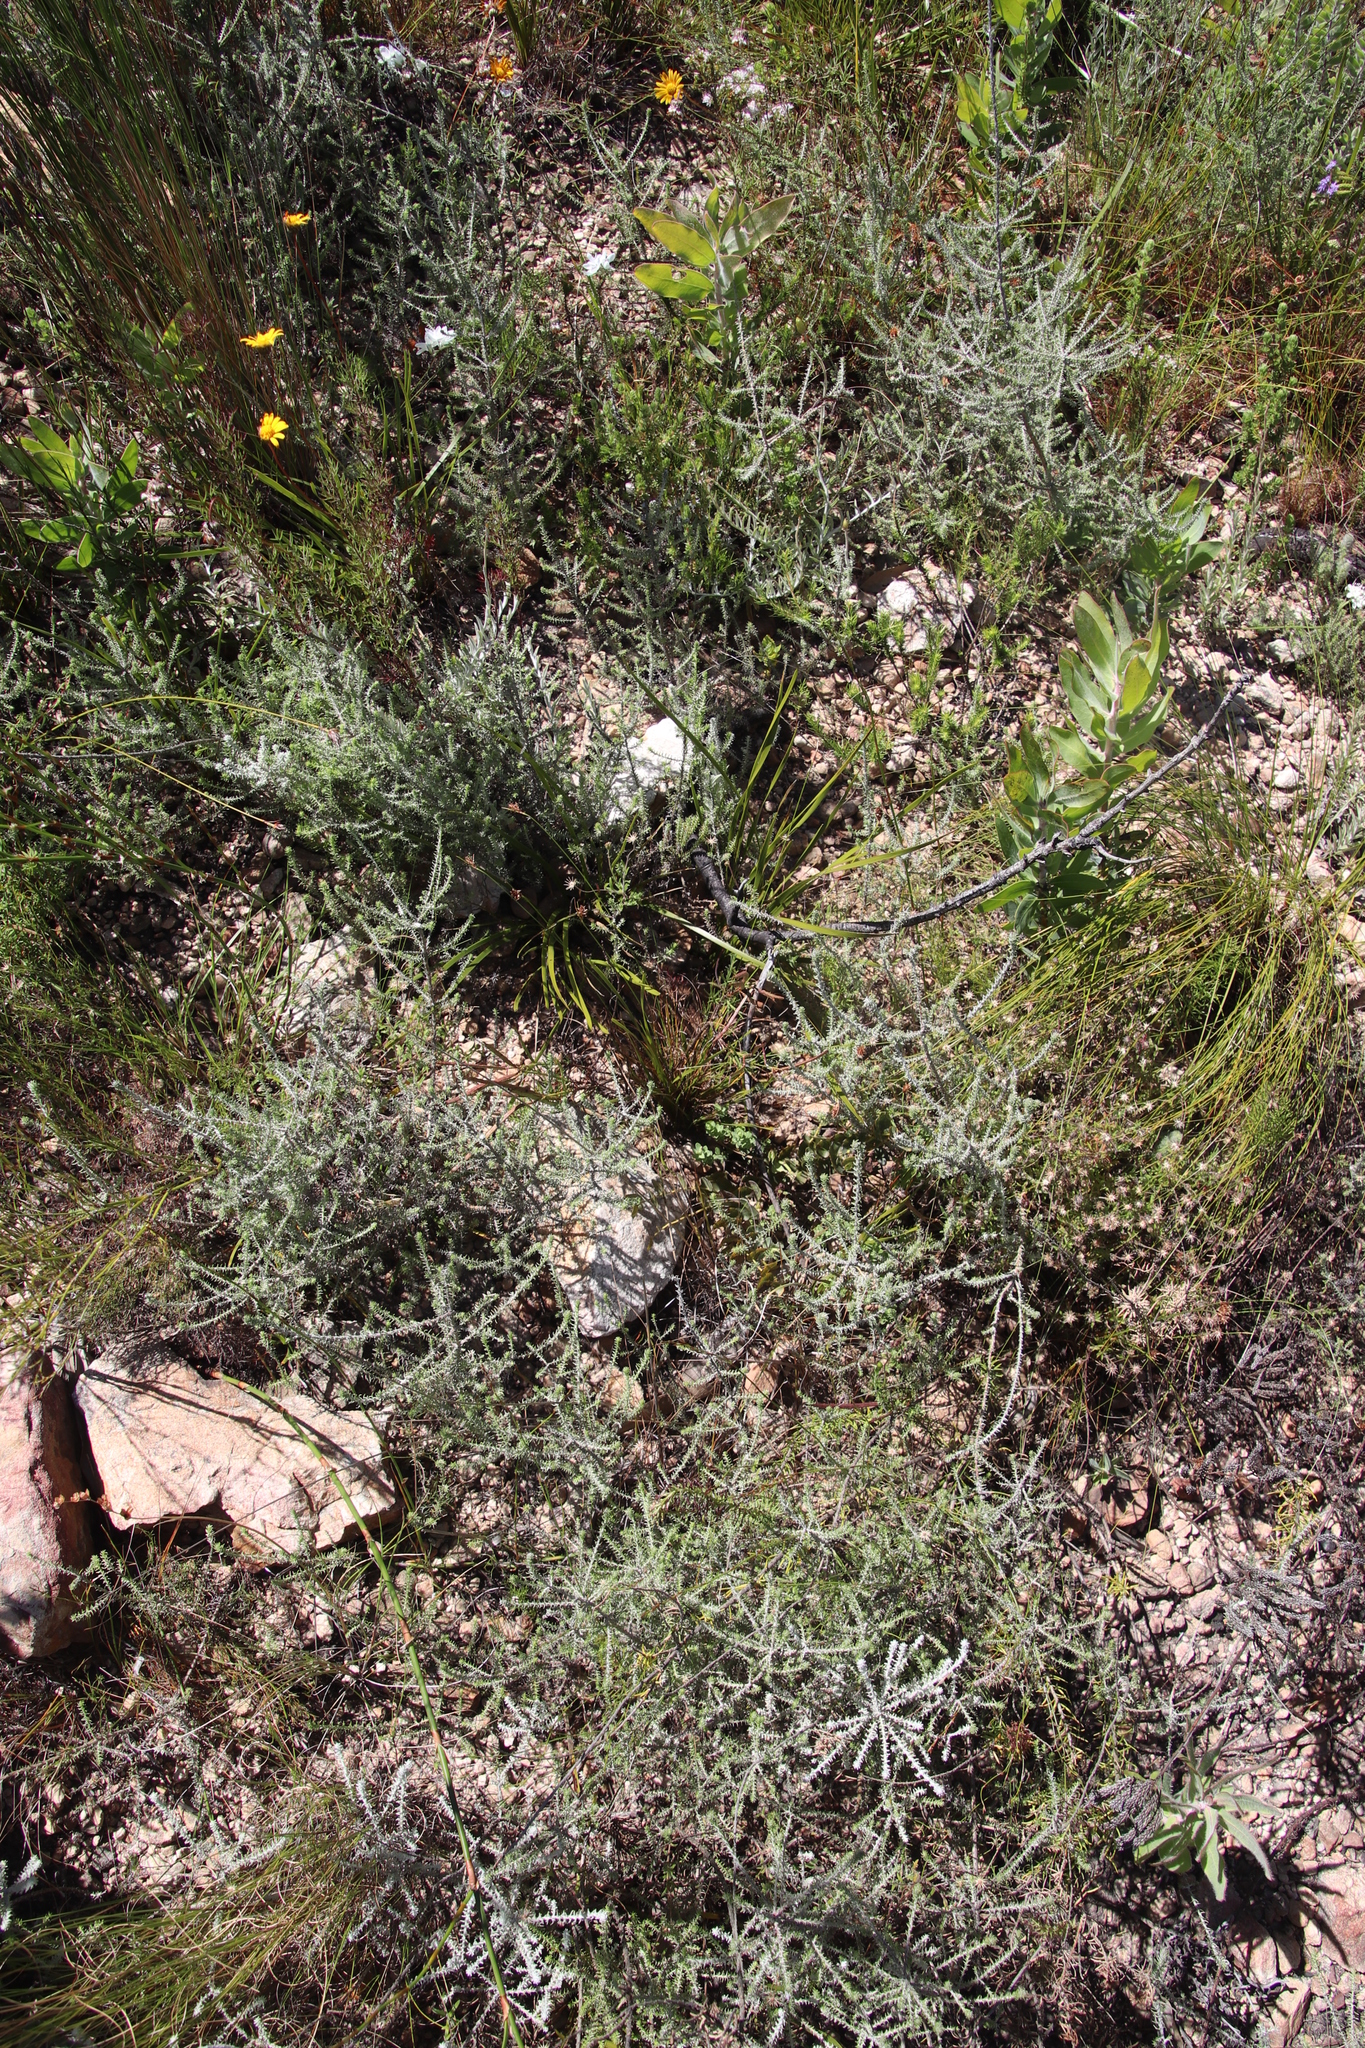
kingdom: Plantae
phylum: Tracheophyta
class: Liliopsida
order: Poales
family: Cyperaceae
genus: Ficinia
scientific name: Ficinia nigrescens
